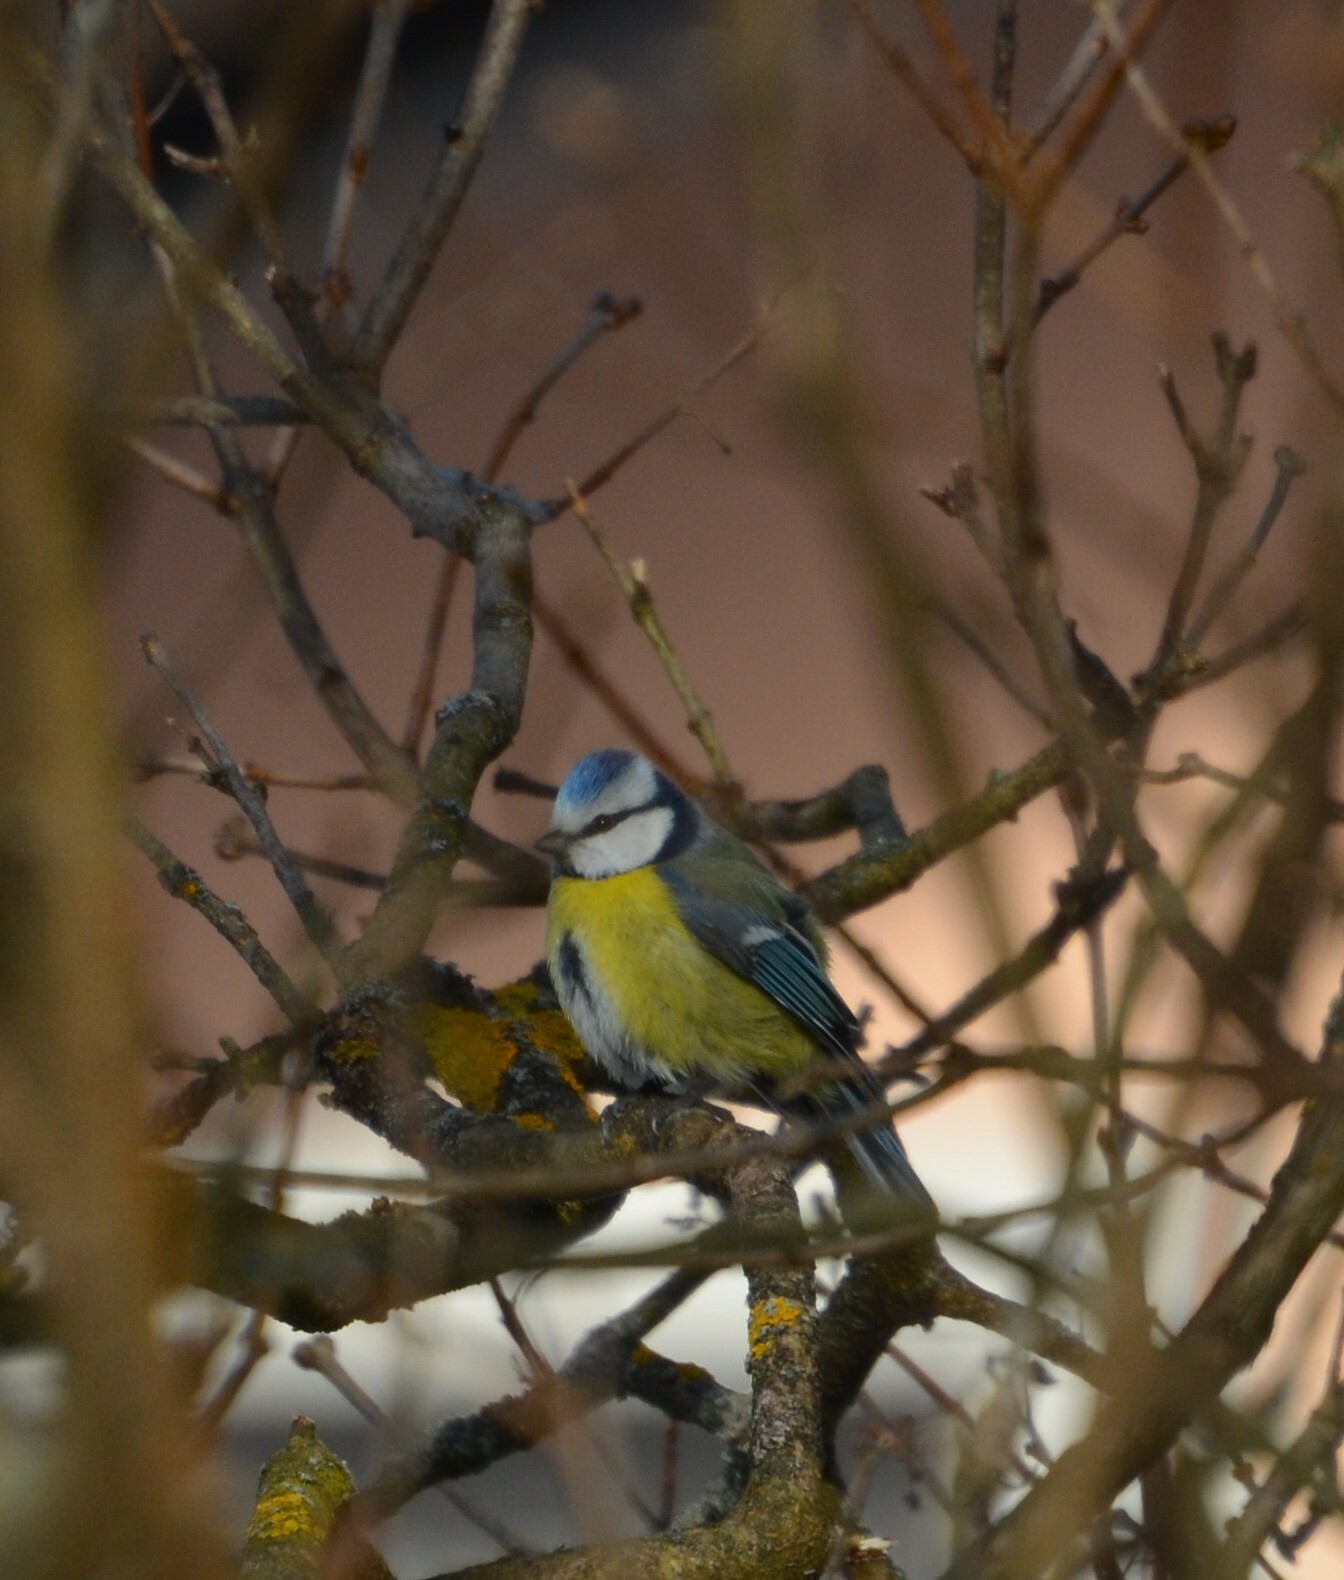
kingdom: Animalia
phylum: Chordata
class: Aves
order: Passeriformes
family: Paridae
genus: Cyanistes
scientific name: Cyanistes caeruleus
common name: Eurasian blue tit
